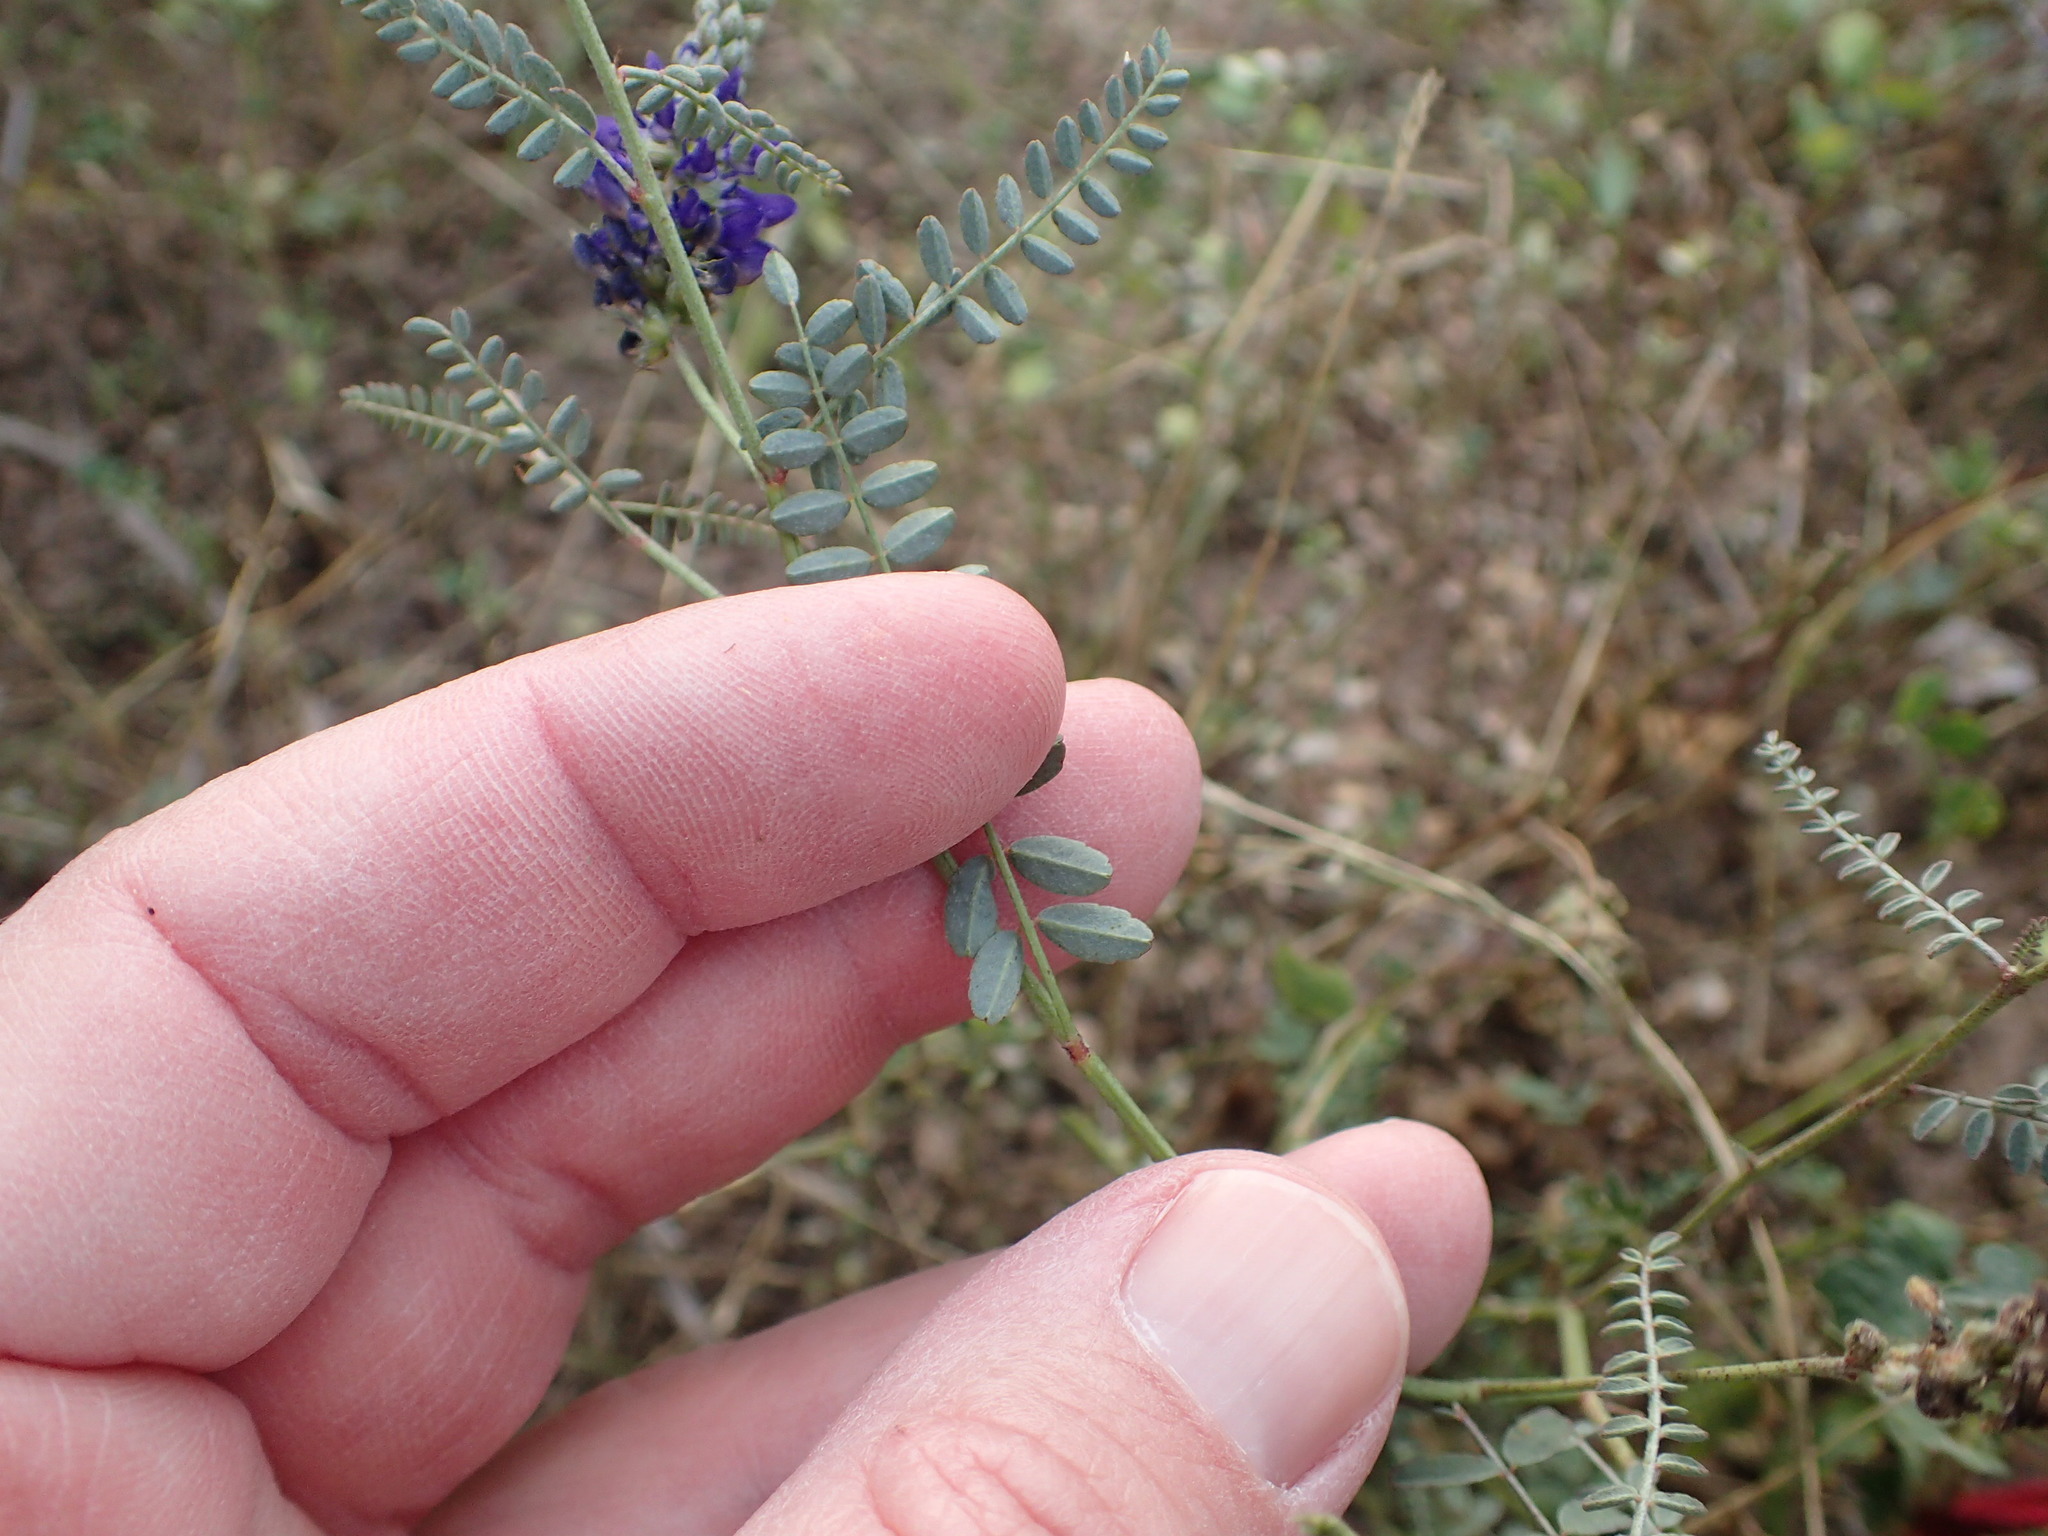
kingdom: Plantae
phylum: Tracheophyta
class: Magnoliopsida
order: Fabales
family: Fabaceae
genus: Marina
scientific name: Marina parryi
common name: Parry's marina
